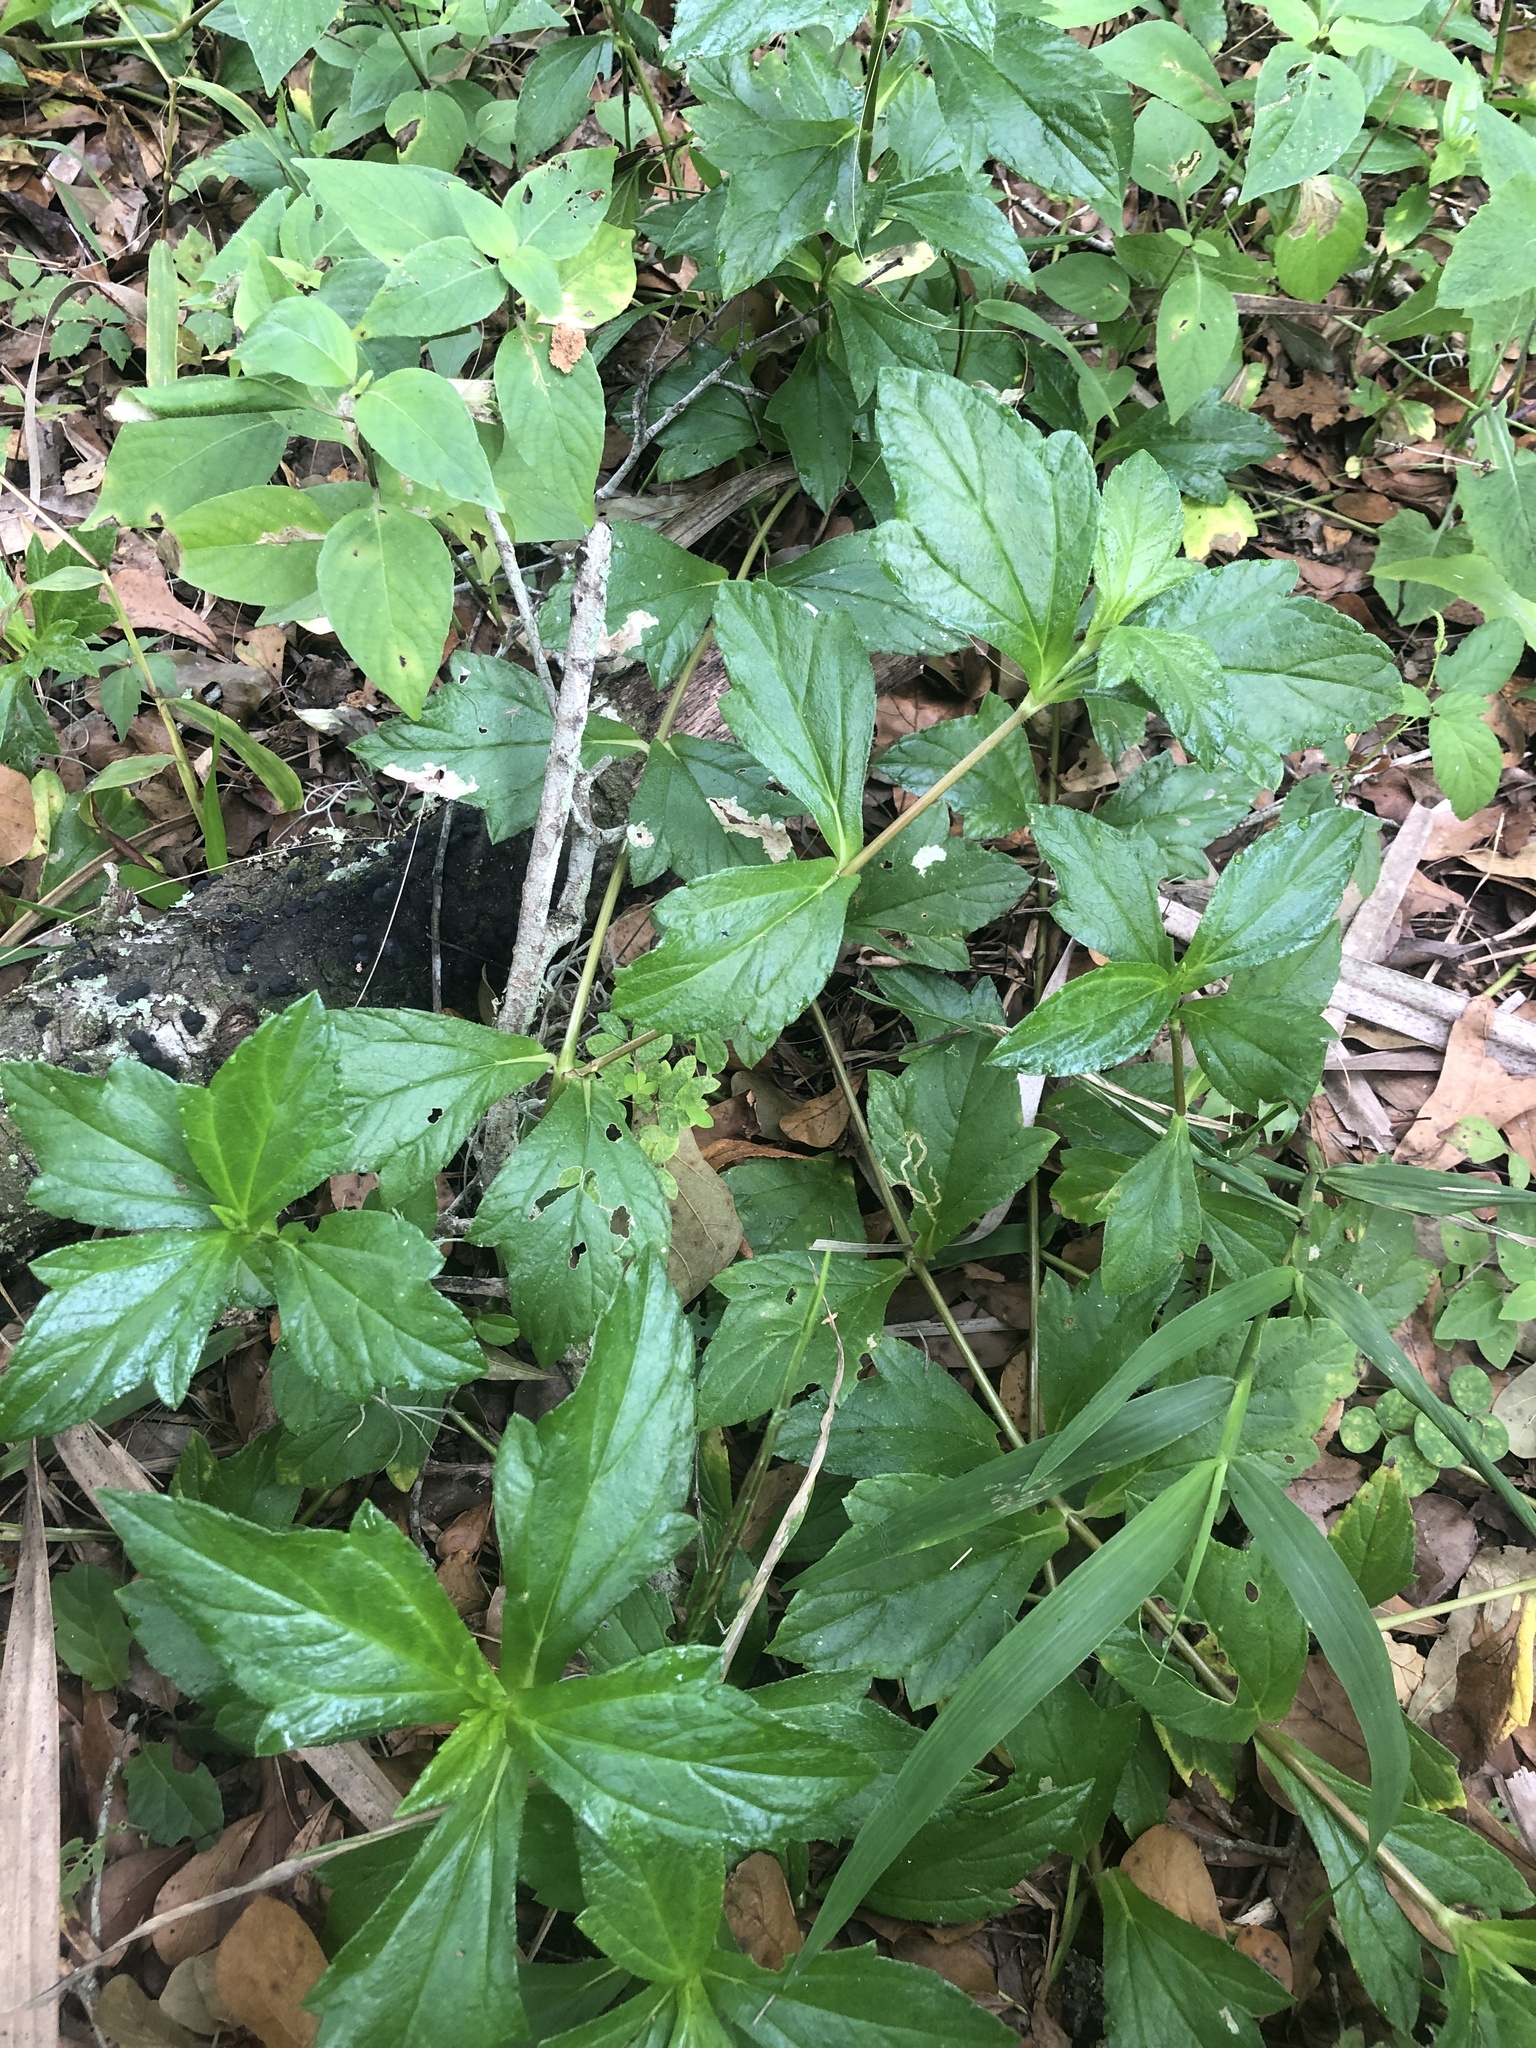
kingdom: Plantae
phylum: Tracheophyta
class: Magnoliopsida
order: Asterales
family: Asteraceae
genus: Sphagneticola
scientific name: Sphagneticola trilobata
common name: Bay biscayne creeping-oxeye
